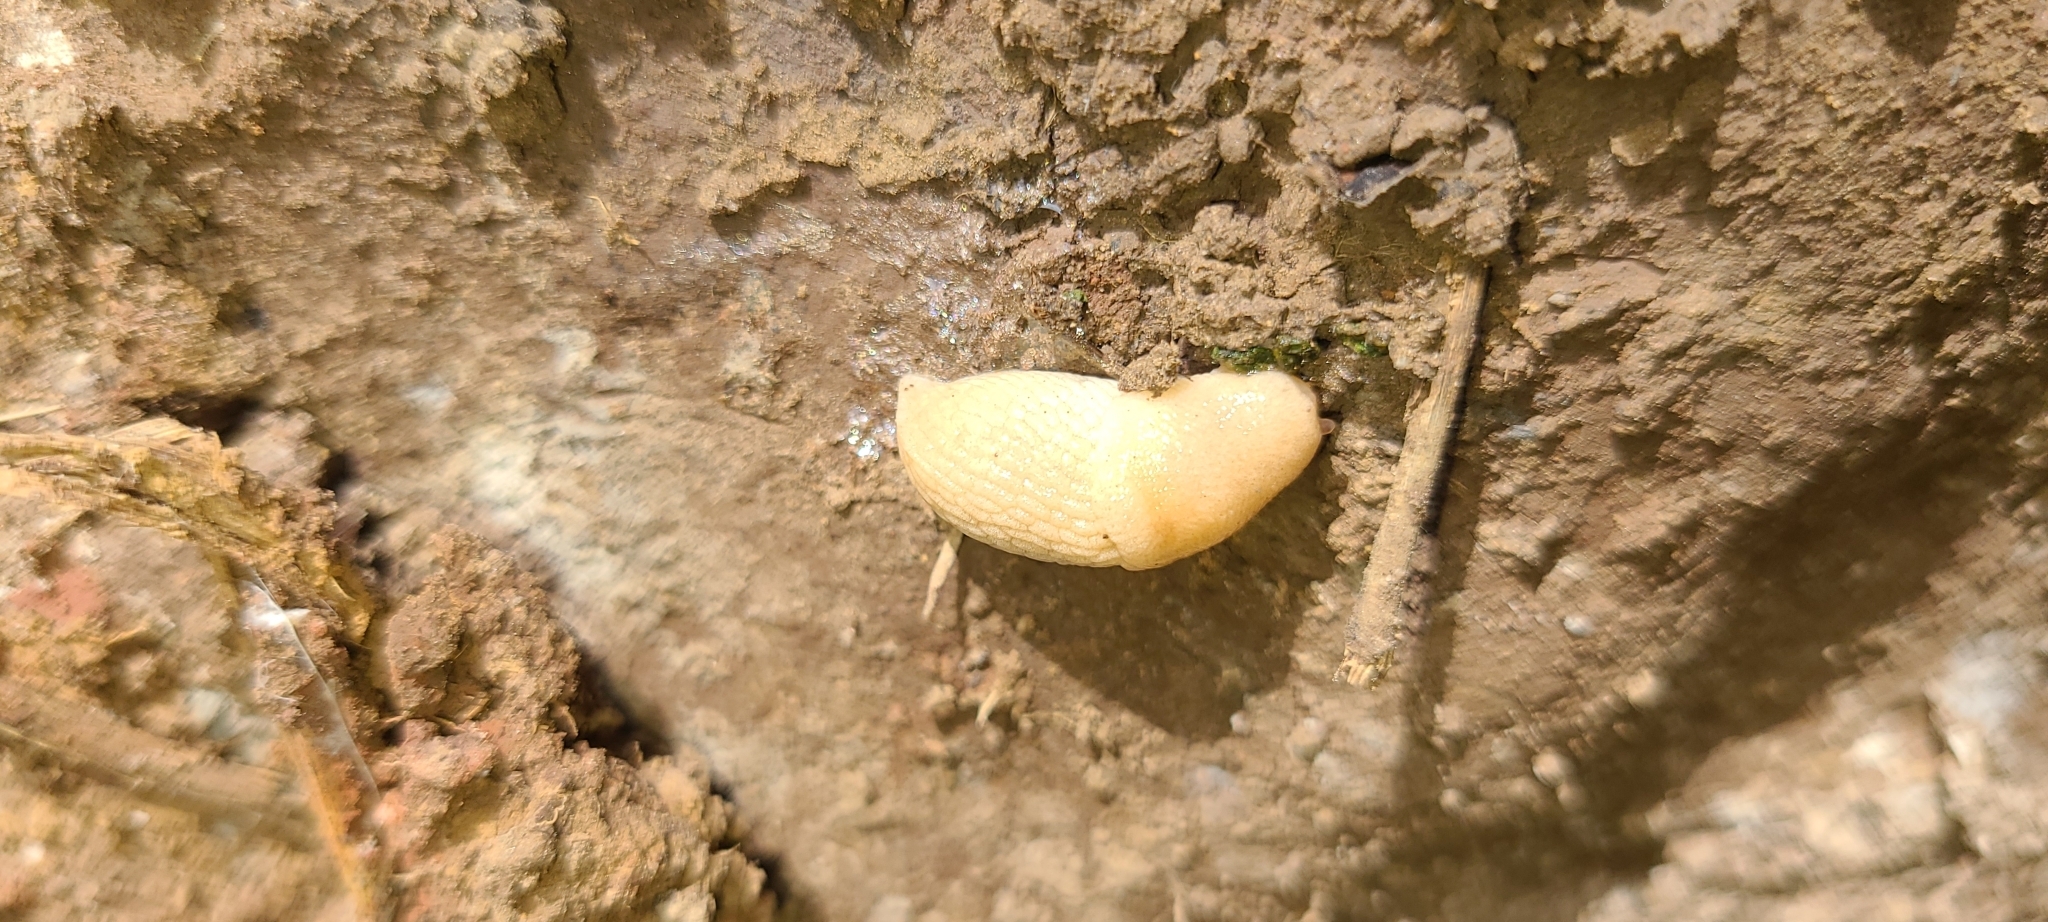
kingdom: Animalia
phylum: Mollusca
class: Gastropoda
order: Stylommatophora
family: Agriolimacidae
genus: Deroceras
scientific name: Deroceras reticulatum
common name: Gray field slug
